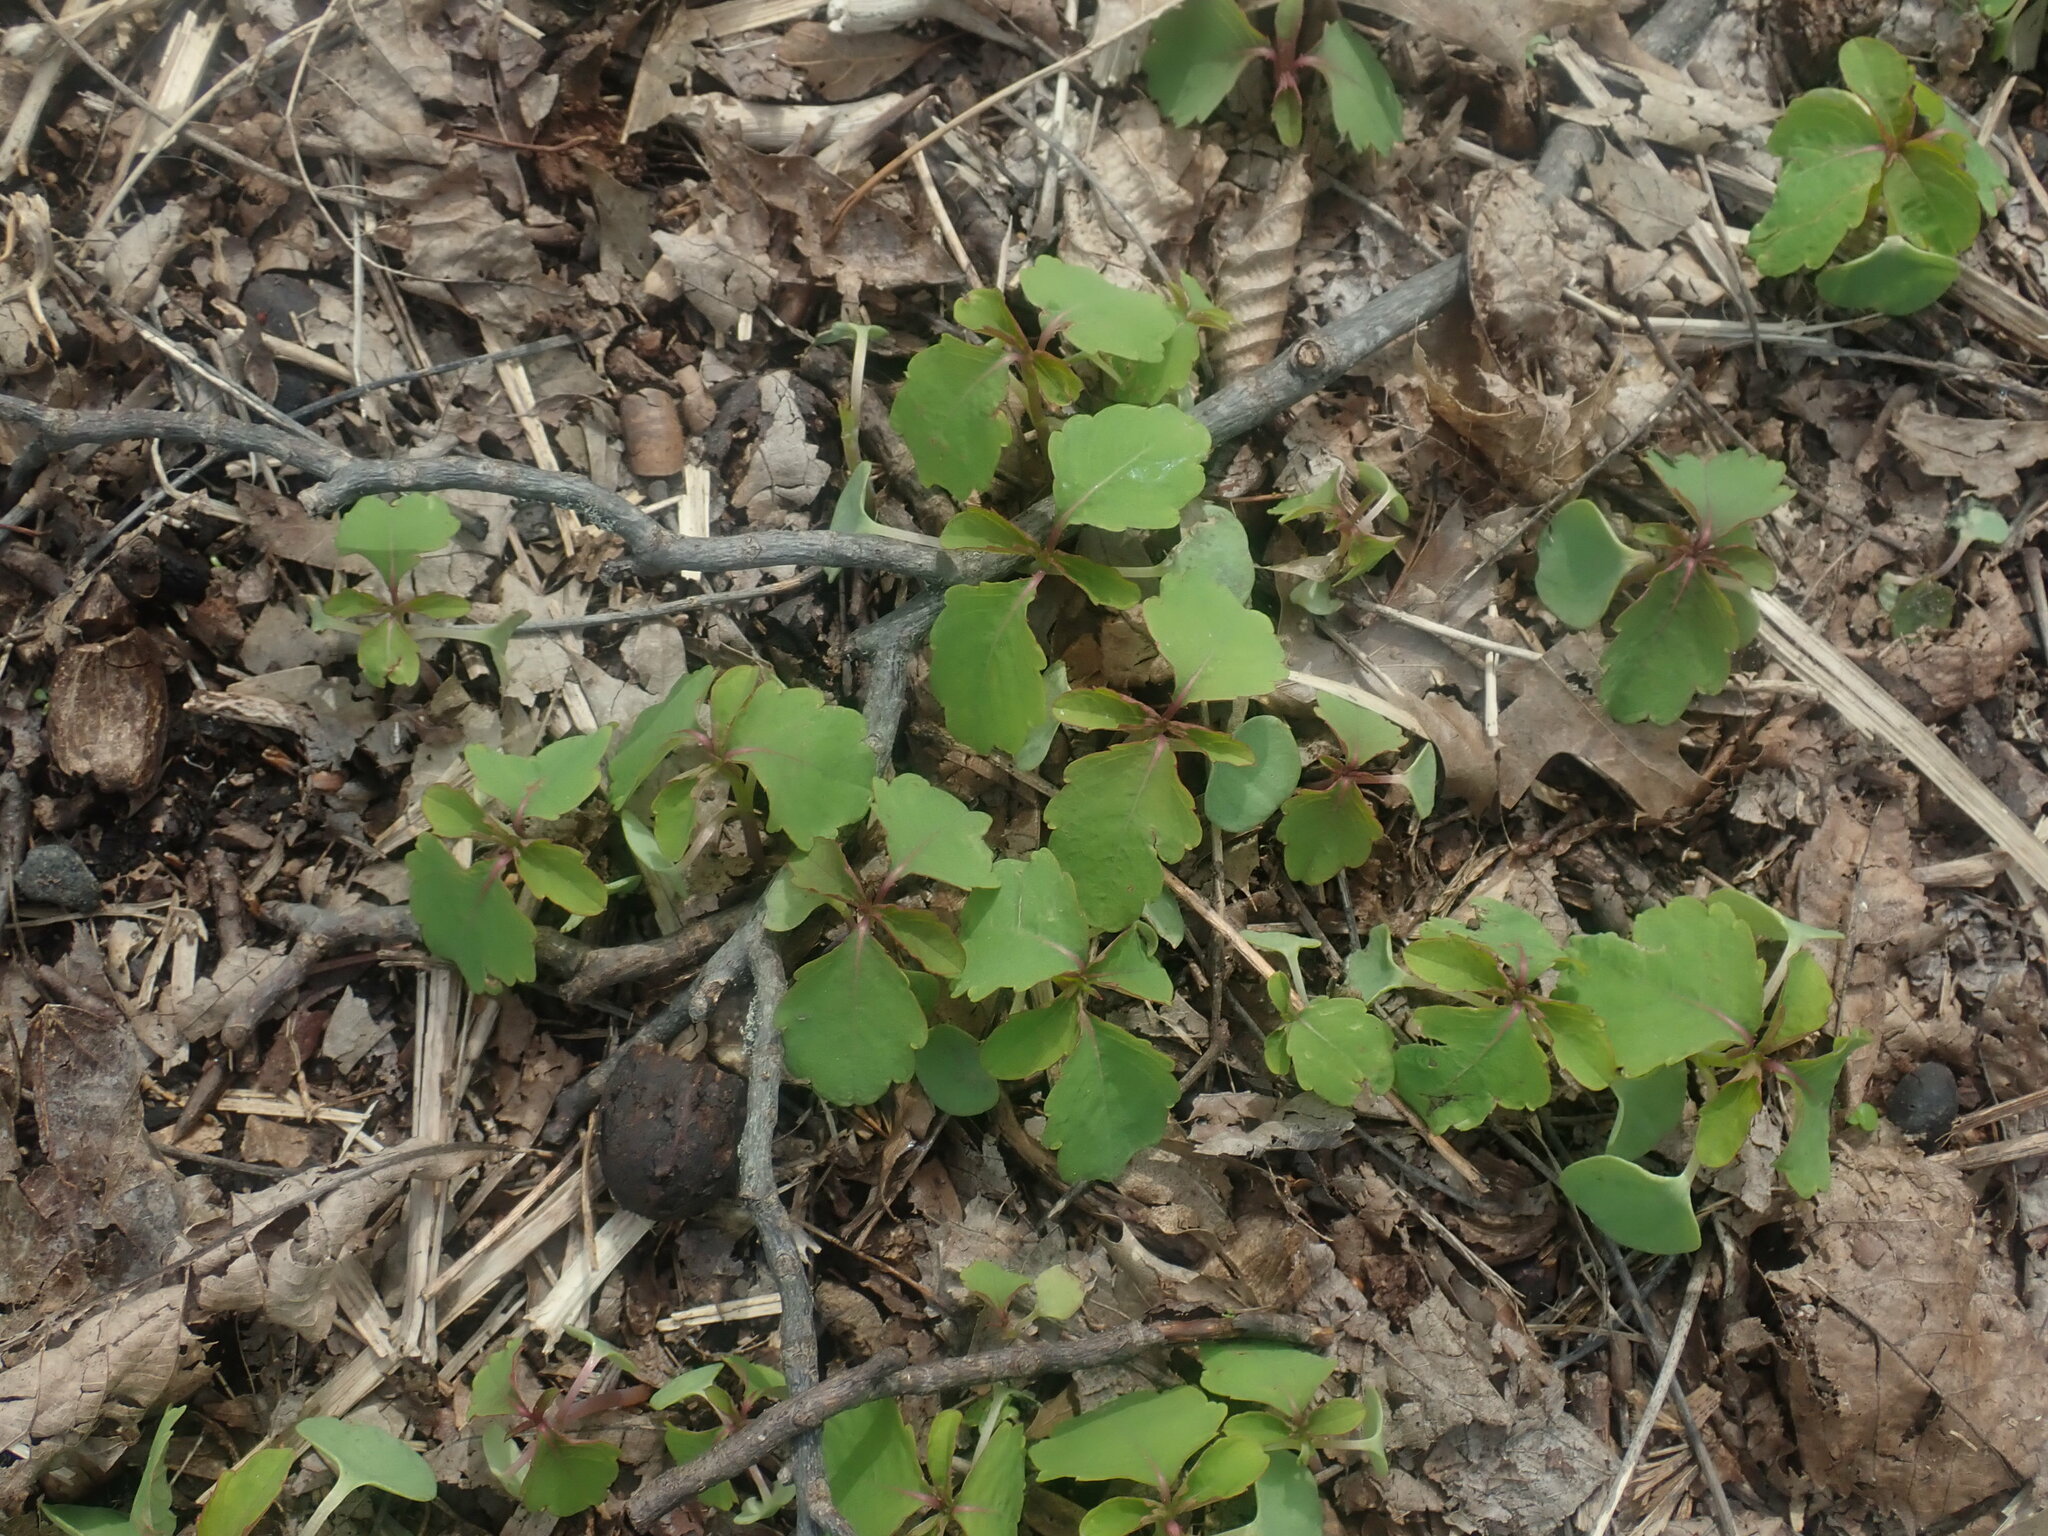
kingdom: Plantae
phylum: Tracheophyta
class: Magnoliopsida
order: Ericales
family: Balsaminaceae
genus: Impatiens
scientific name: Impatiens
